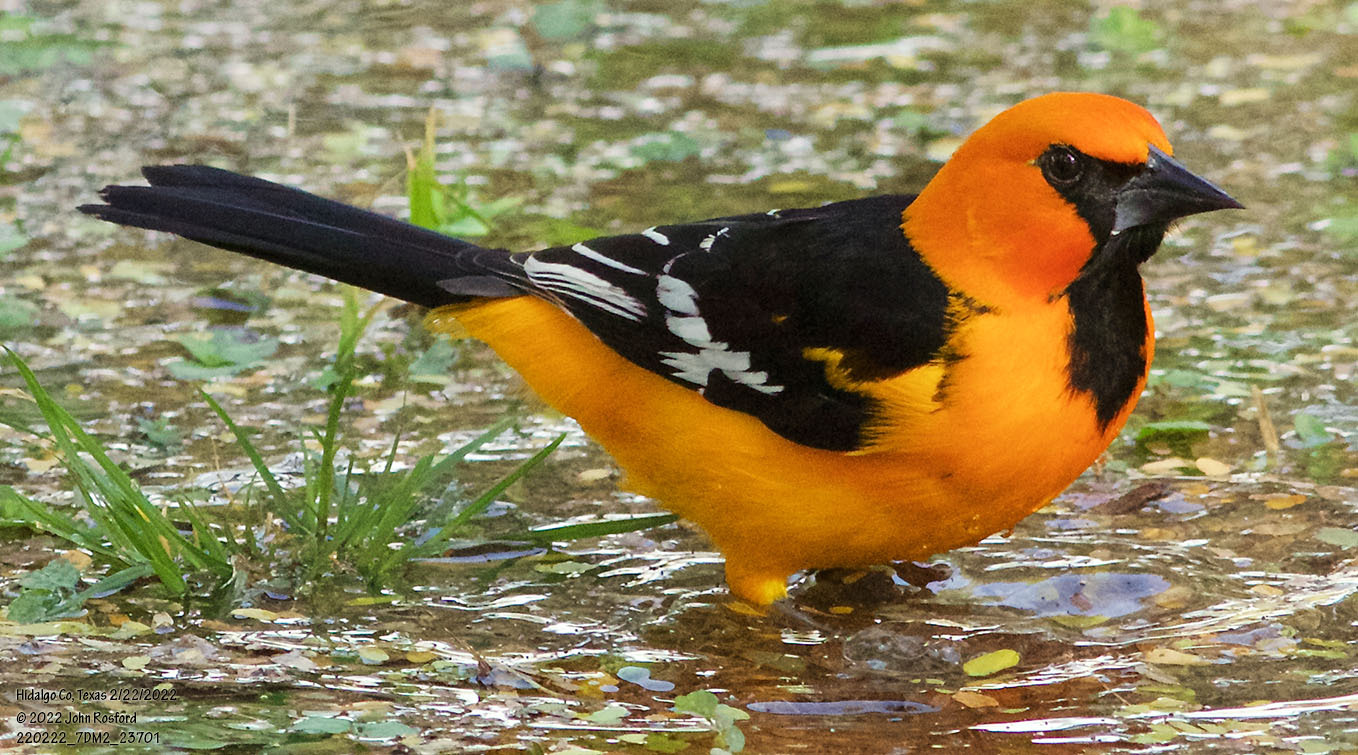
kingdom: Animalia
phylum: Chordata
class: Aves
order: Passeriformes
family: Icteridae
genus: Icterus
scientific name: Icterus gularis
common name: Altamira oriole
